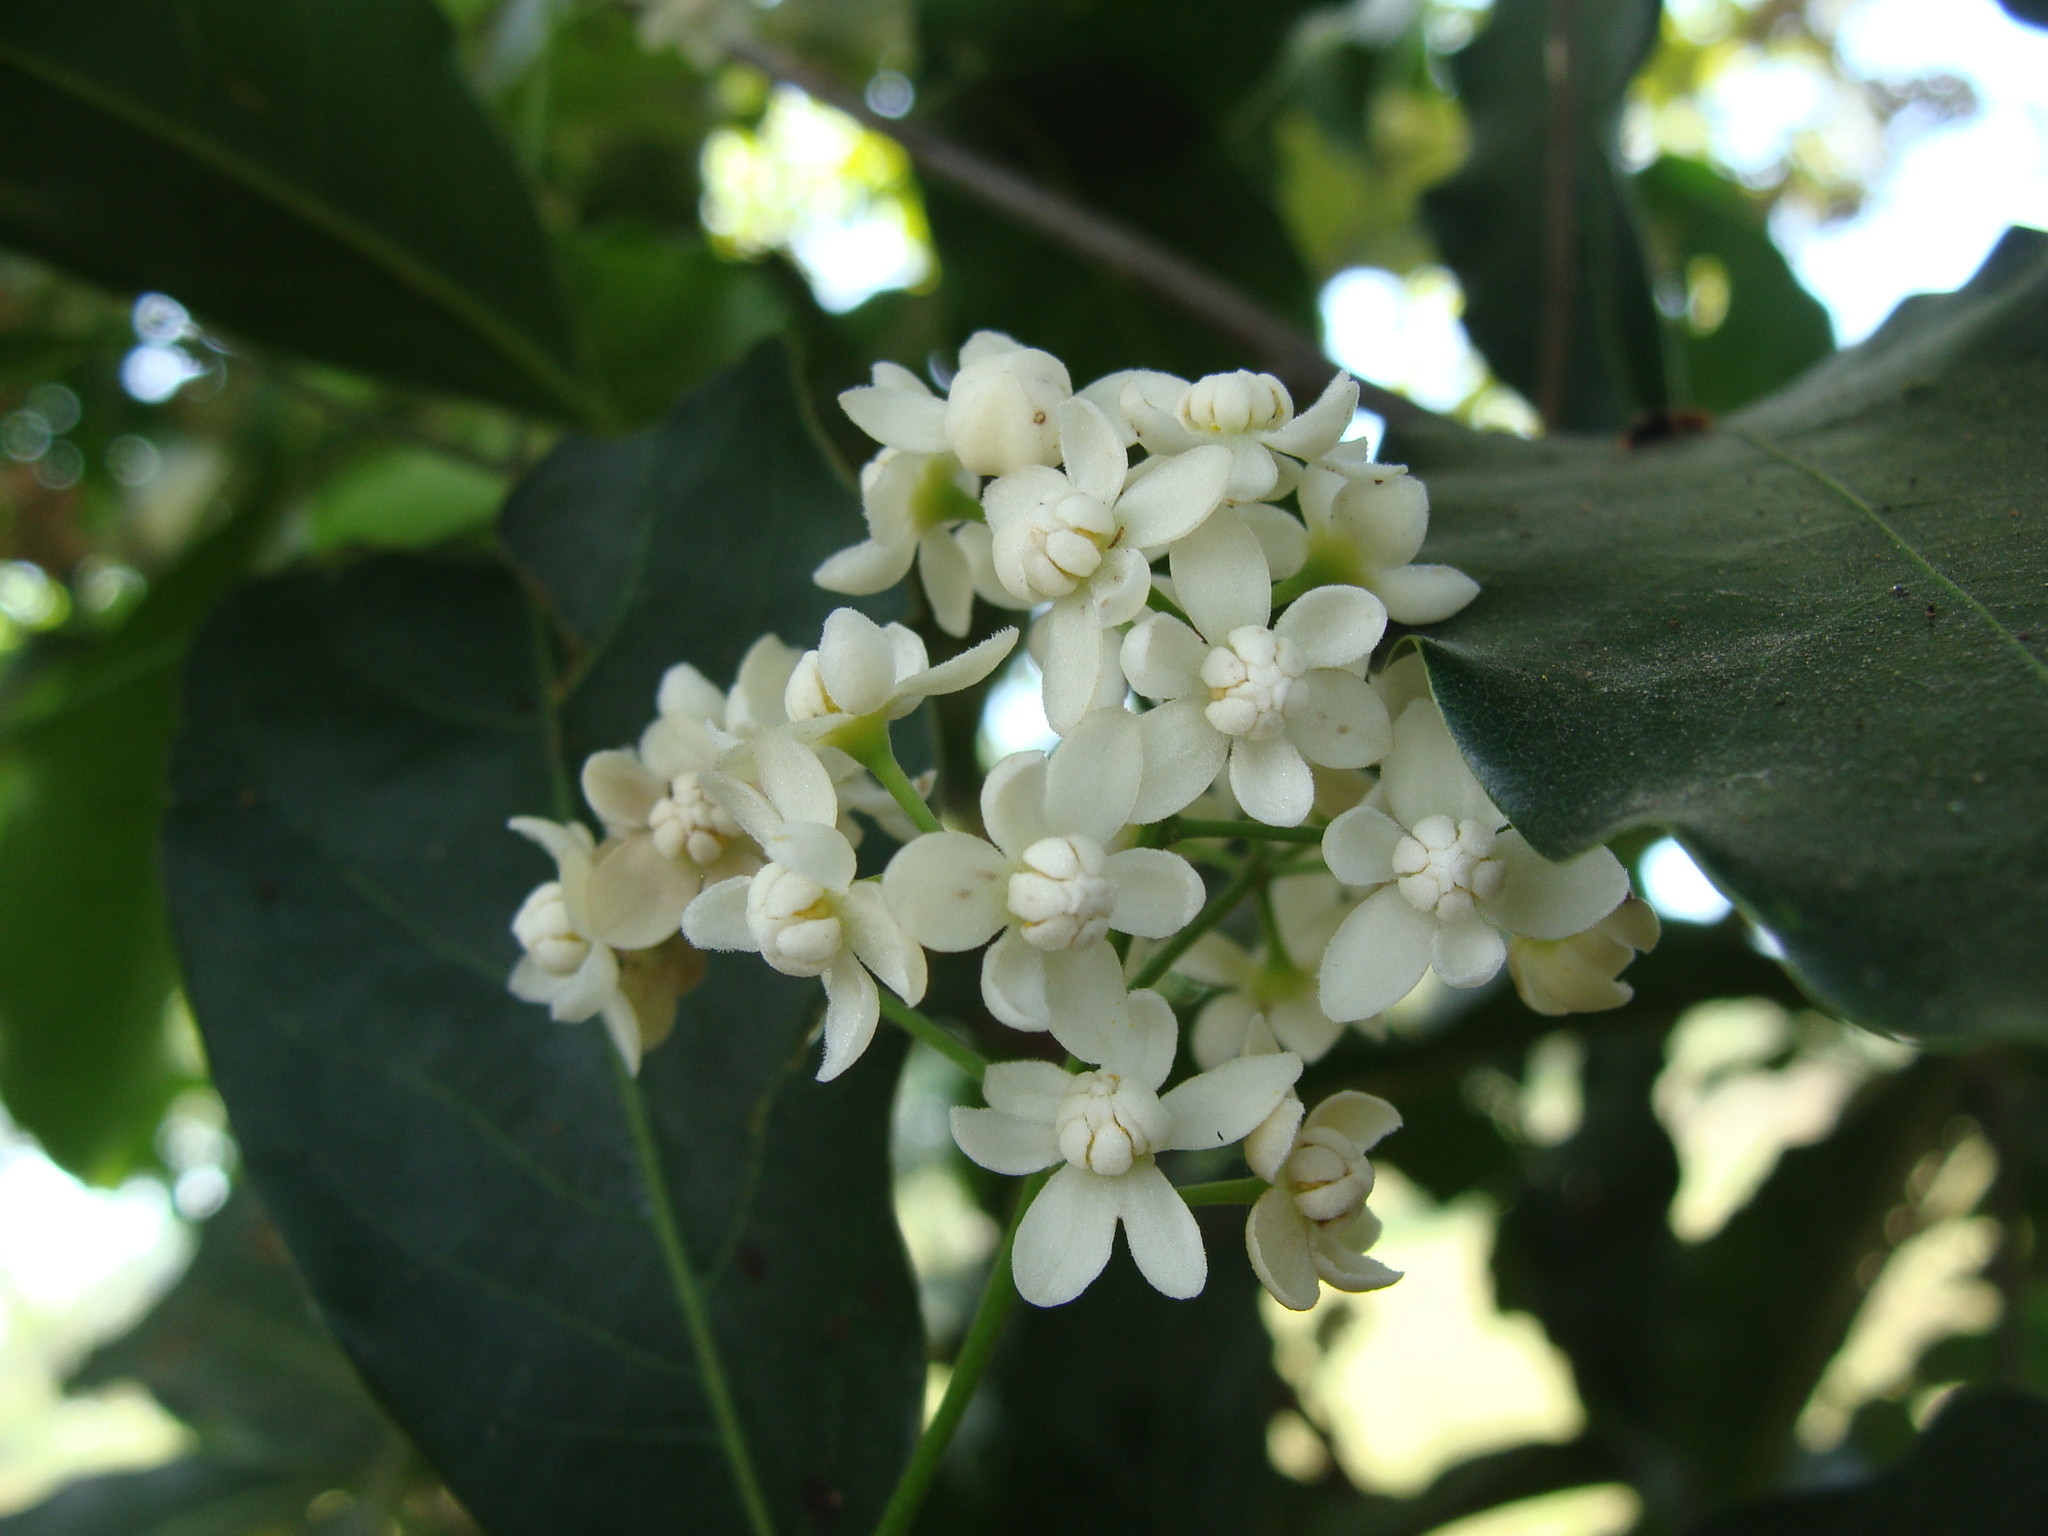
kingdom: Plantae
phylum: Tracheophyta
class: Magnoliopsida
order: Laurales
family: Lauraceae
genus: Mespilodaphne
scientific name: Mespilodaphne veraguensis
